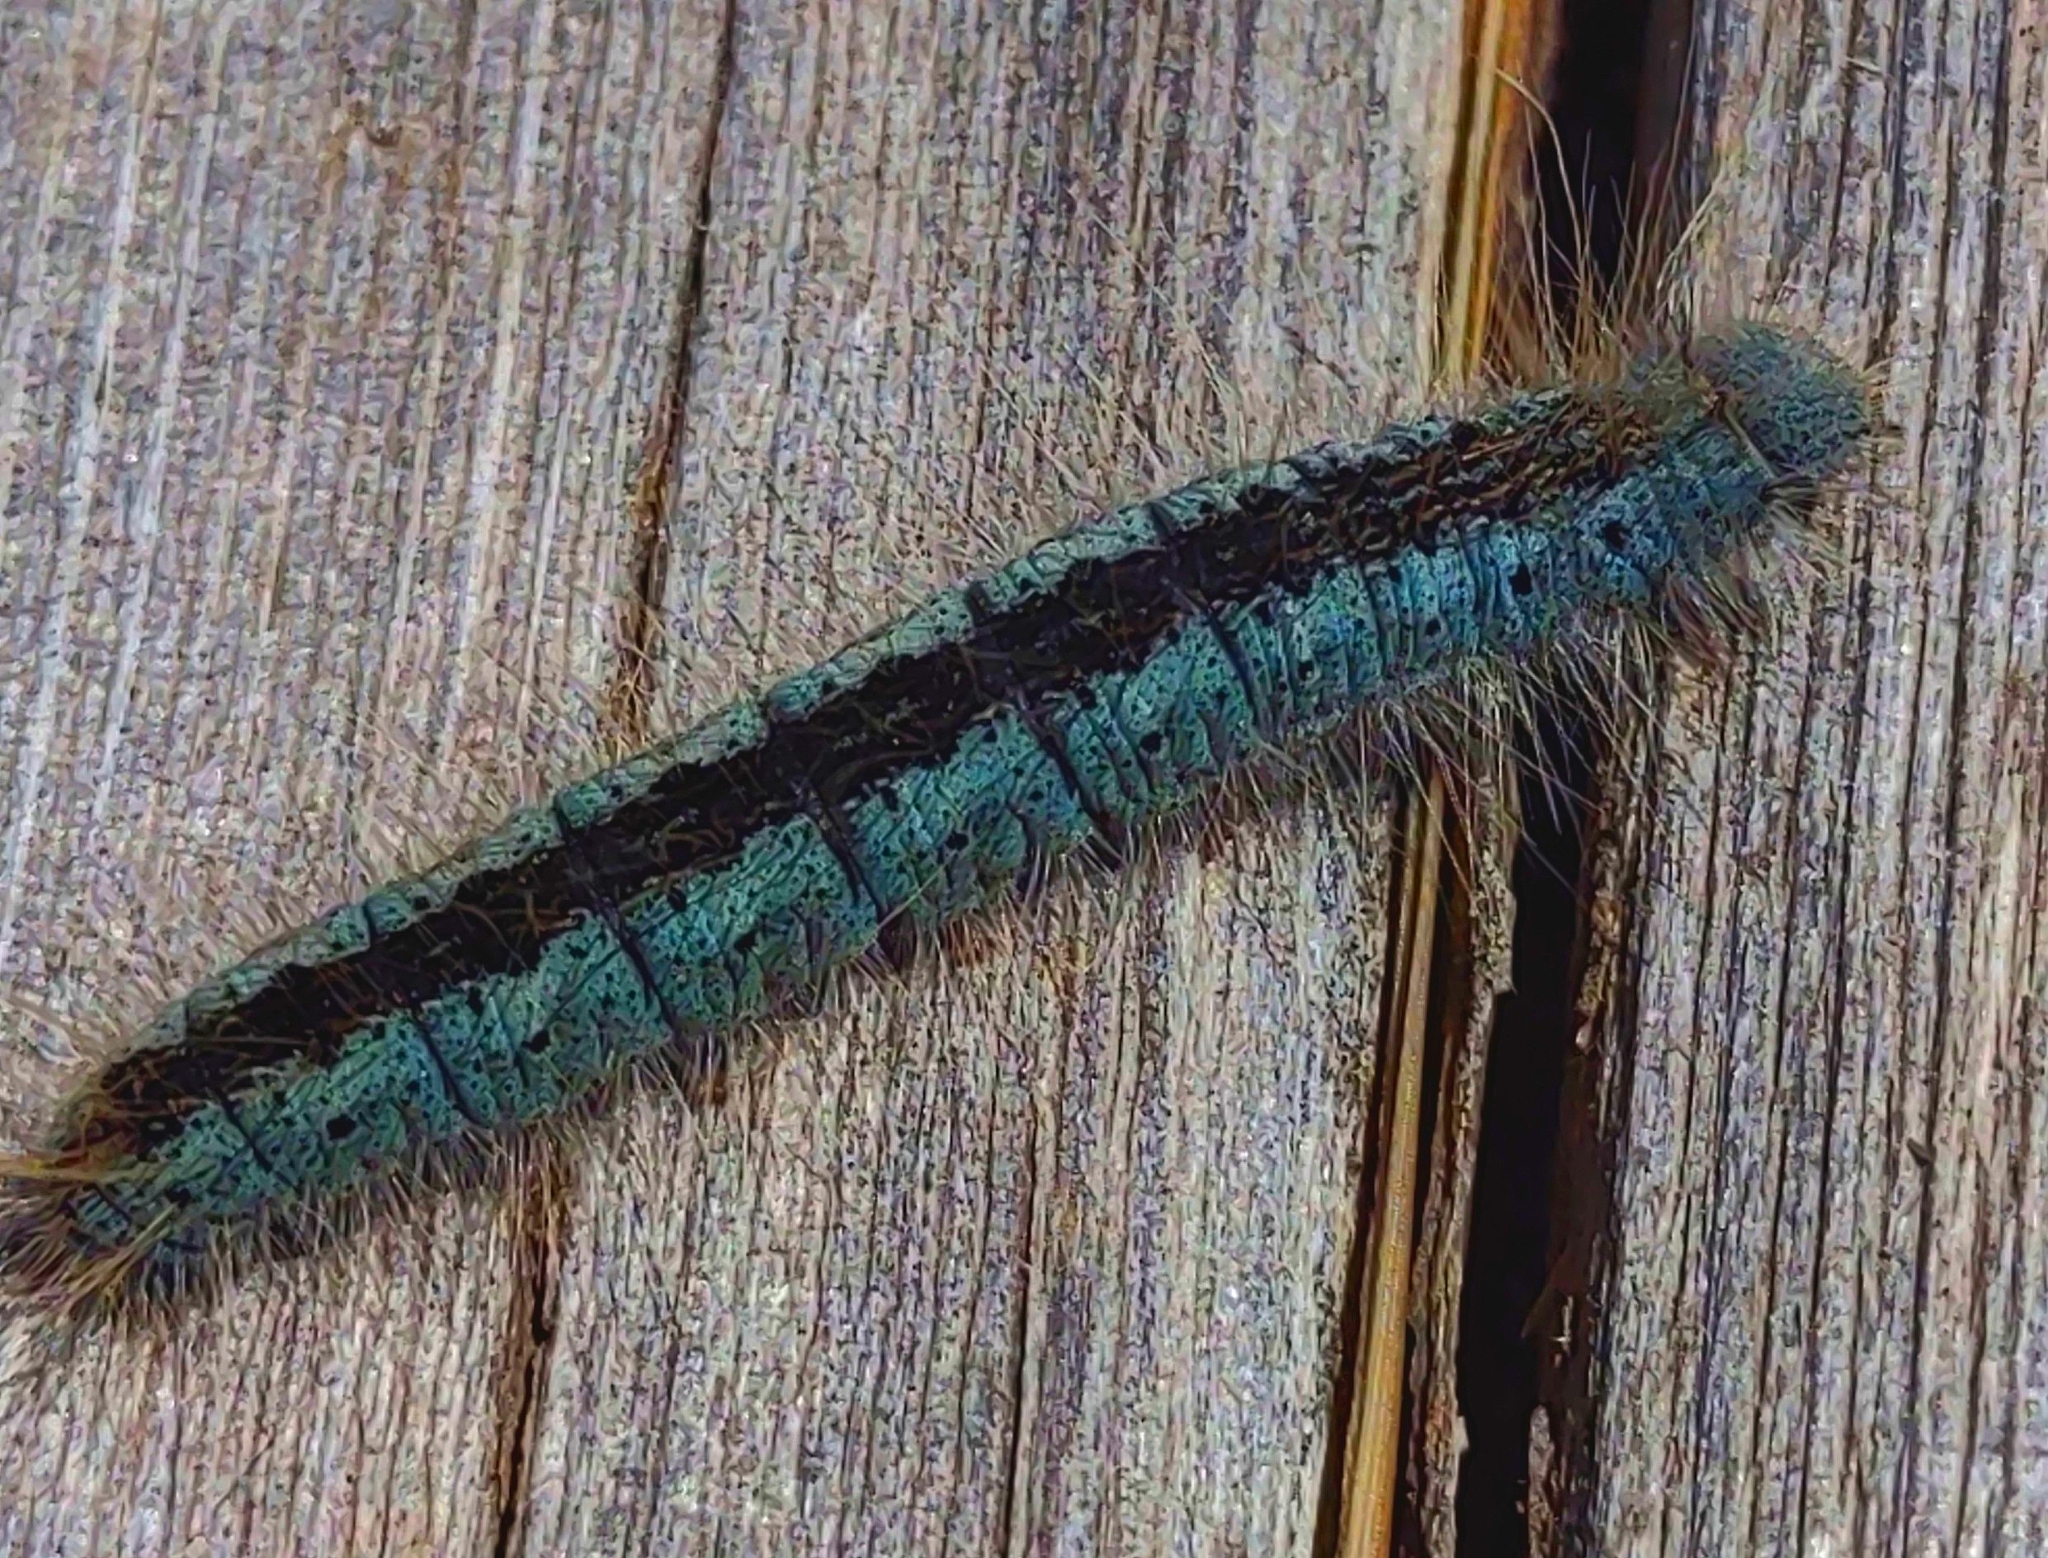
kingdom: Animalia
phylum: Arthropoda
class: Insecta
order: Lepidoptera
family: Lasiocampidae
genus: Malacosoma
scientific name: Malacosoma incurva
